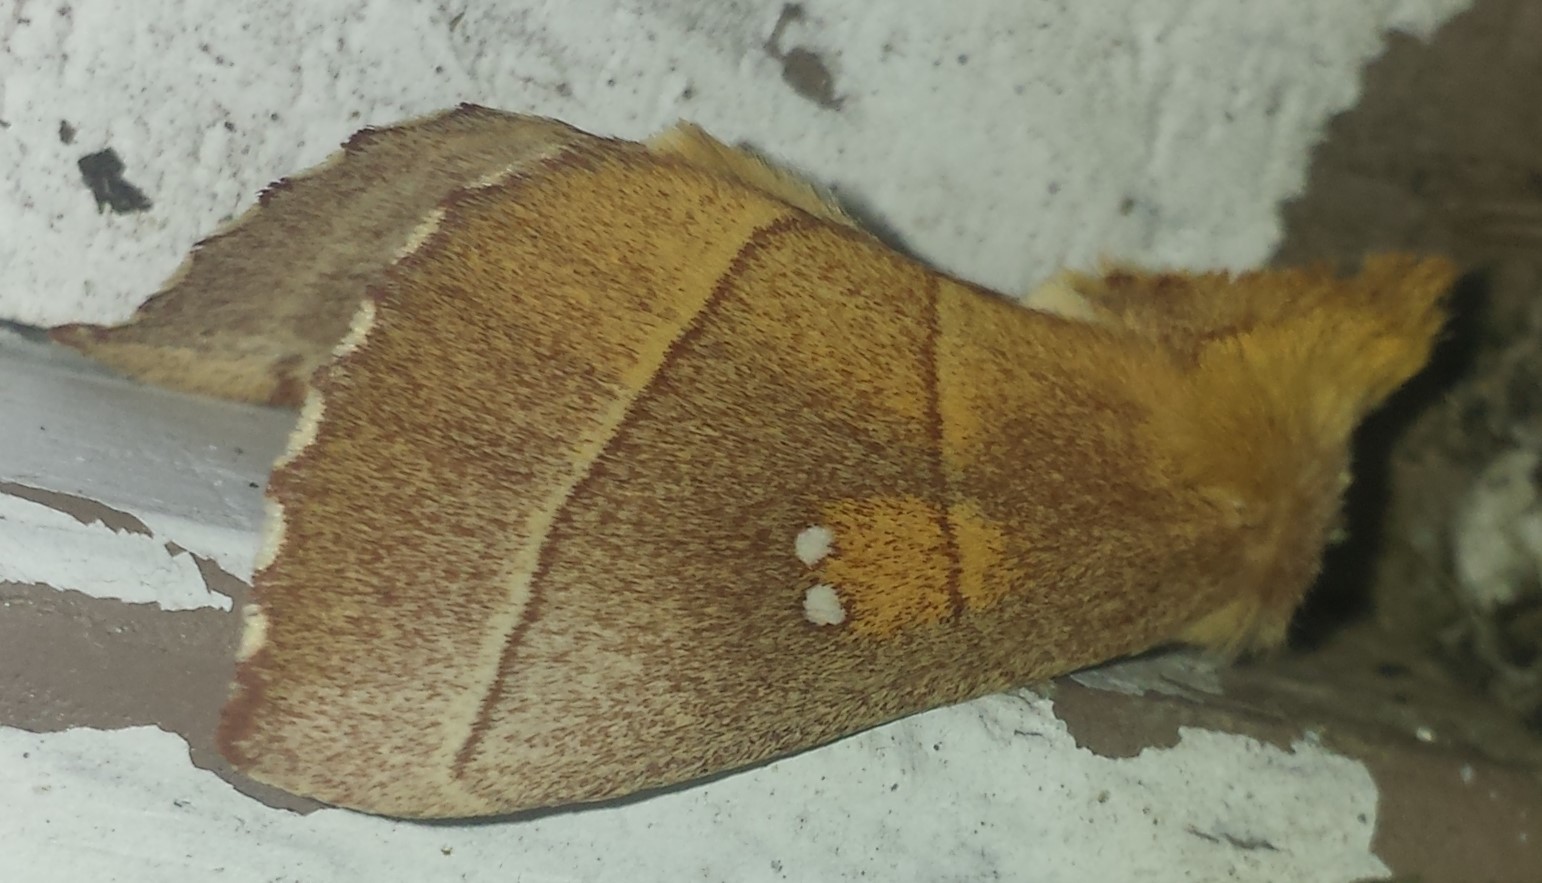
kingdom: Animalia
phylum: Arthropoda
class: Insecta
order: Lepidoptera
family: Notodontidae
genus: Nadata
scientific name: Nadata gibbosa
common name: White-dotted prominent
